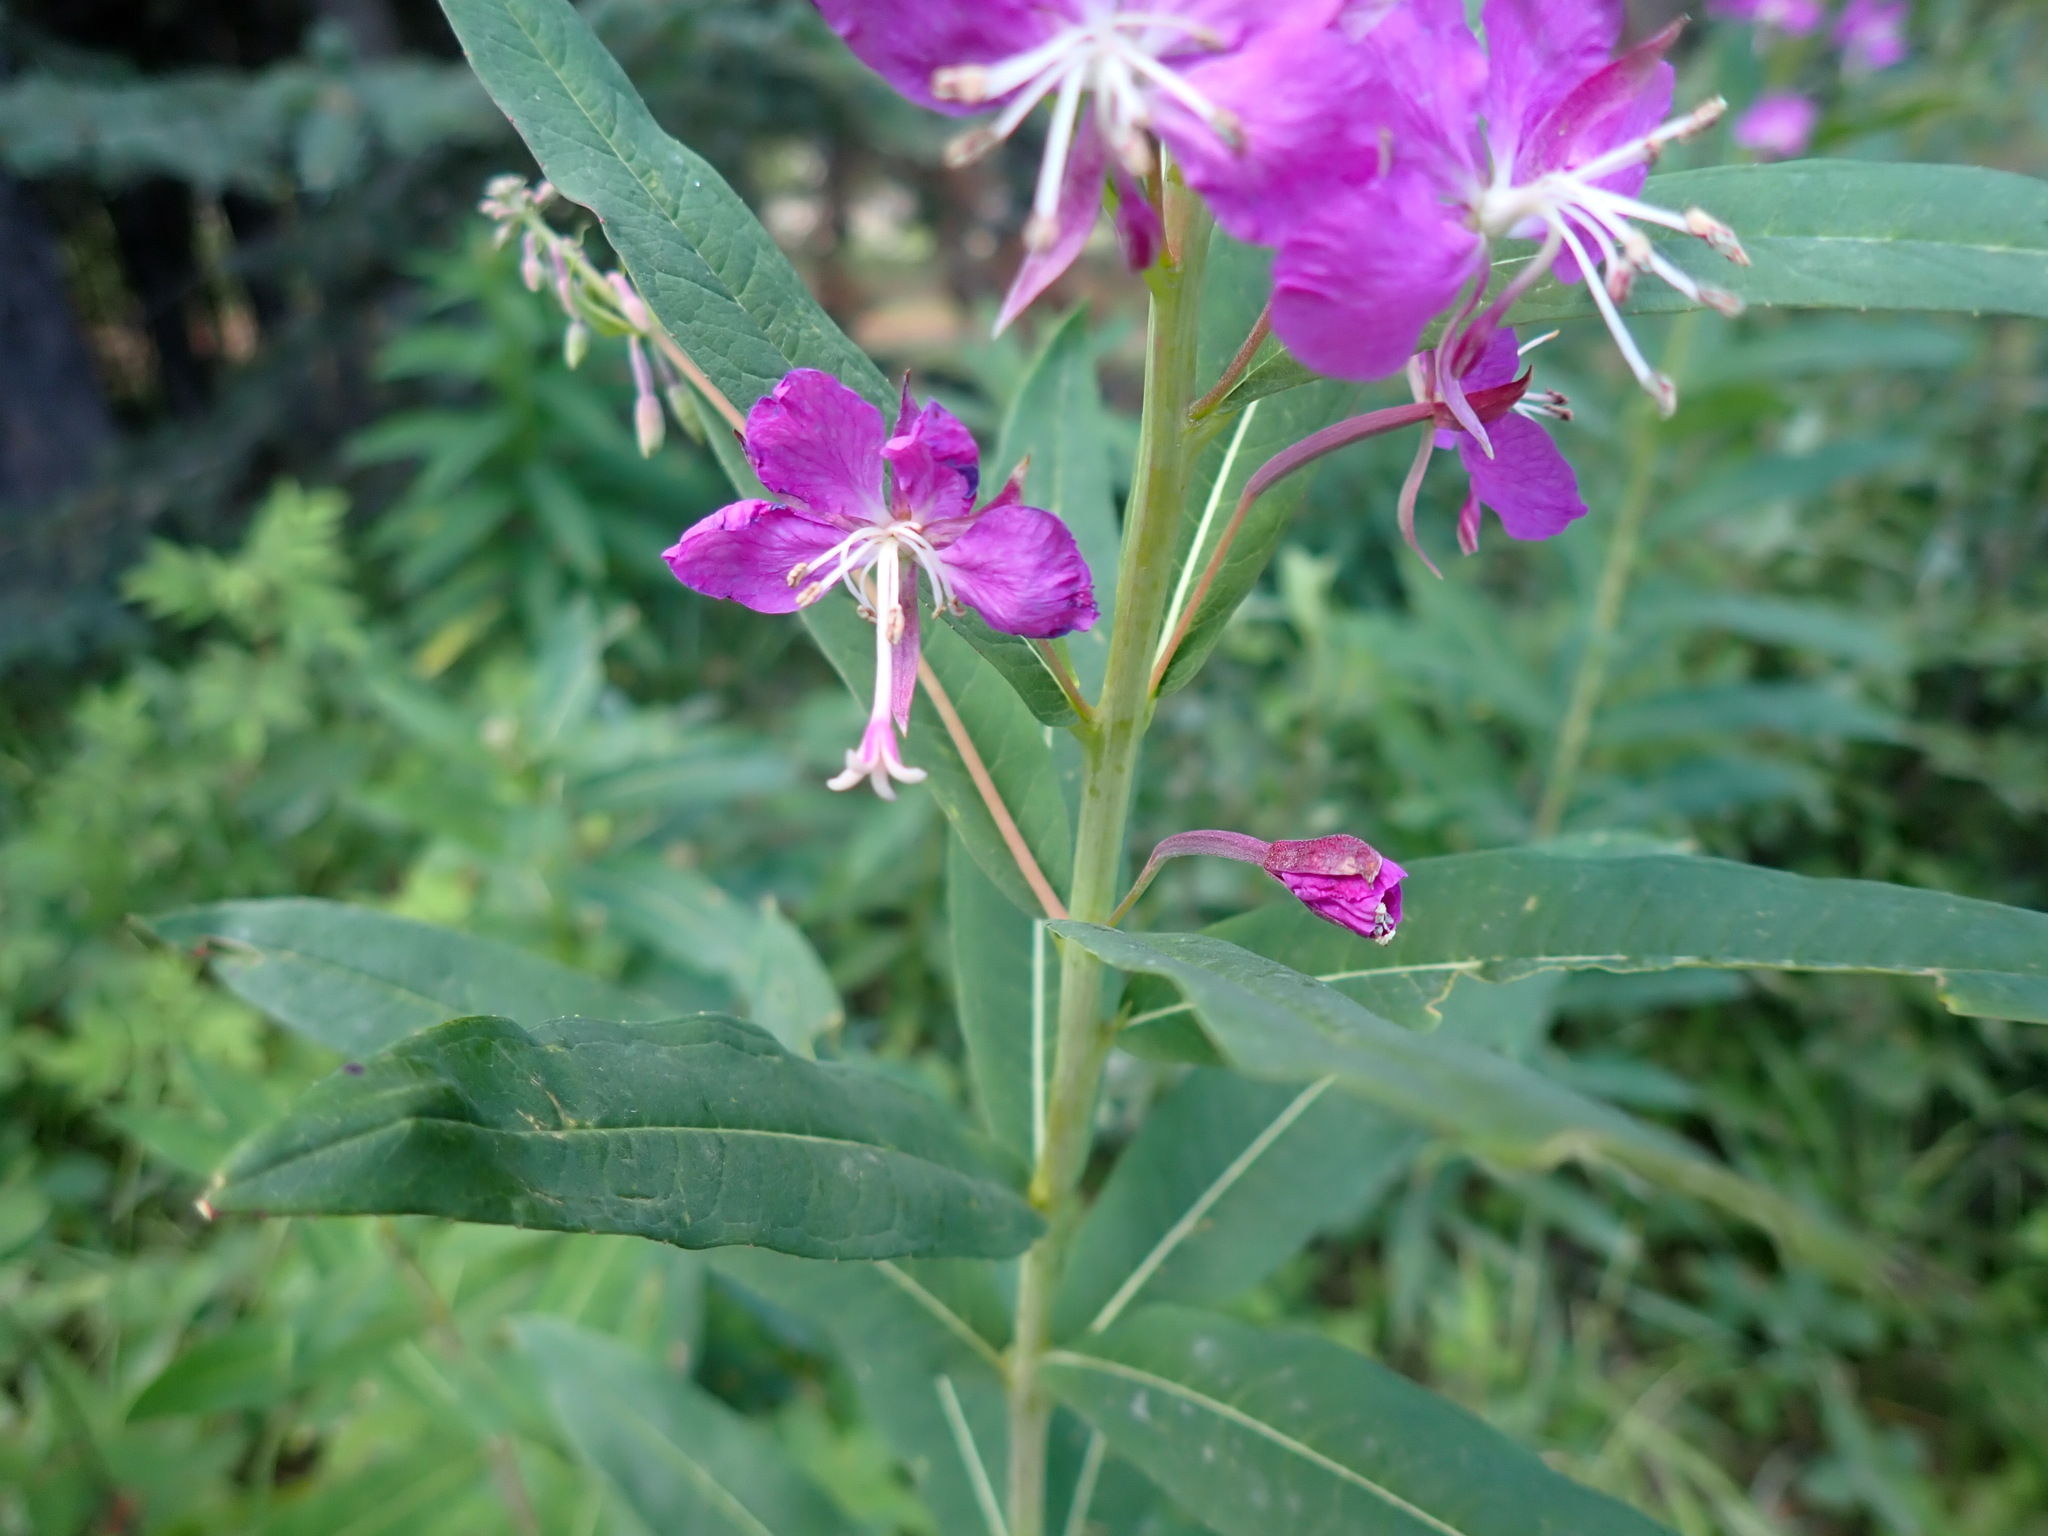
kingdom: Plantae
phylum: Tracheophyta
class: Magnoliopsida
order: Myrtales
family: Onagraceae
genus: Chamaenerion
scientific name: Chamaenerion angustifolium
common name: Fireweed
